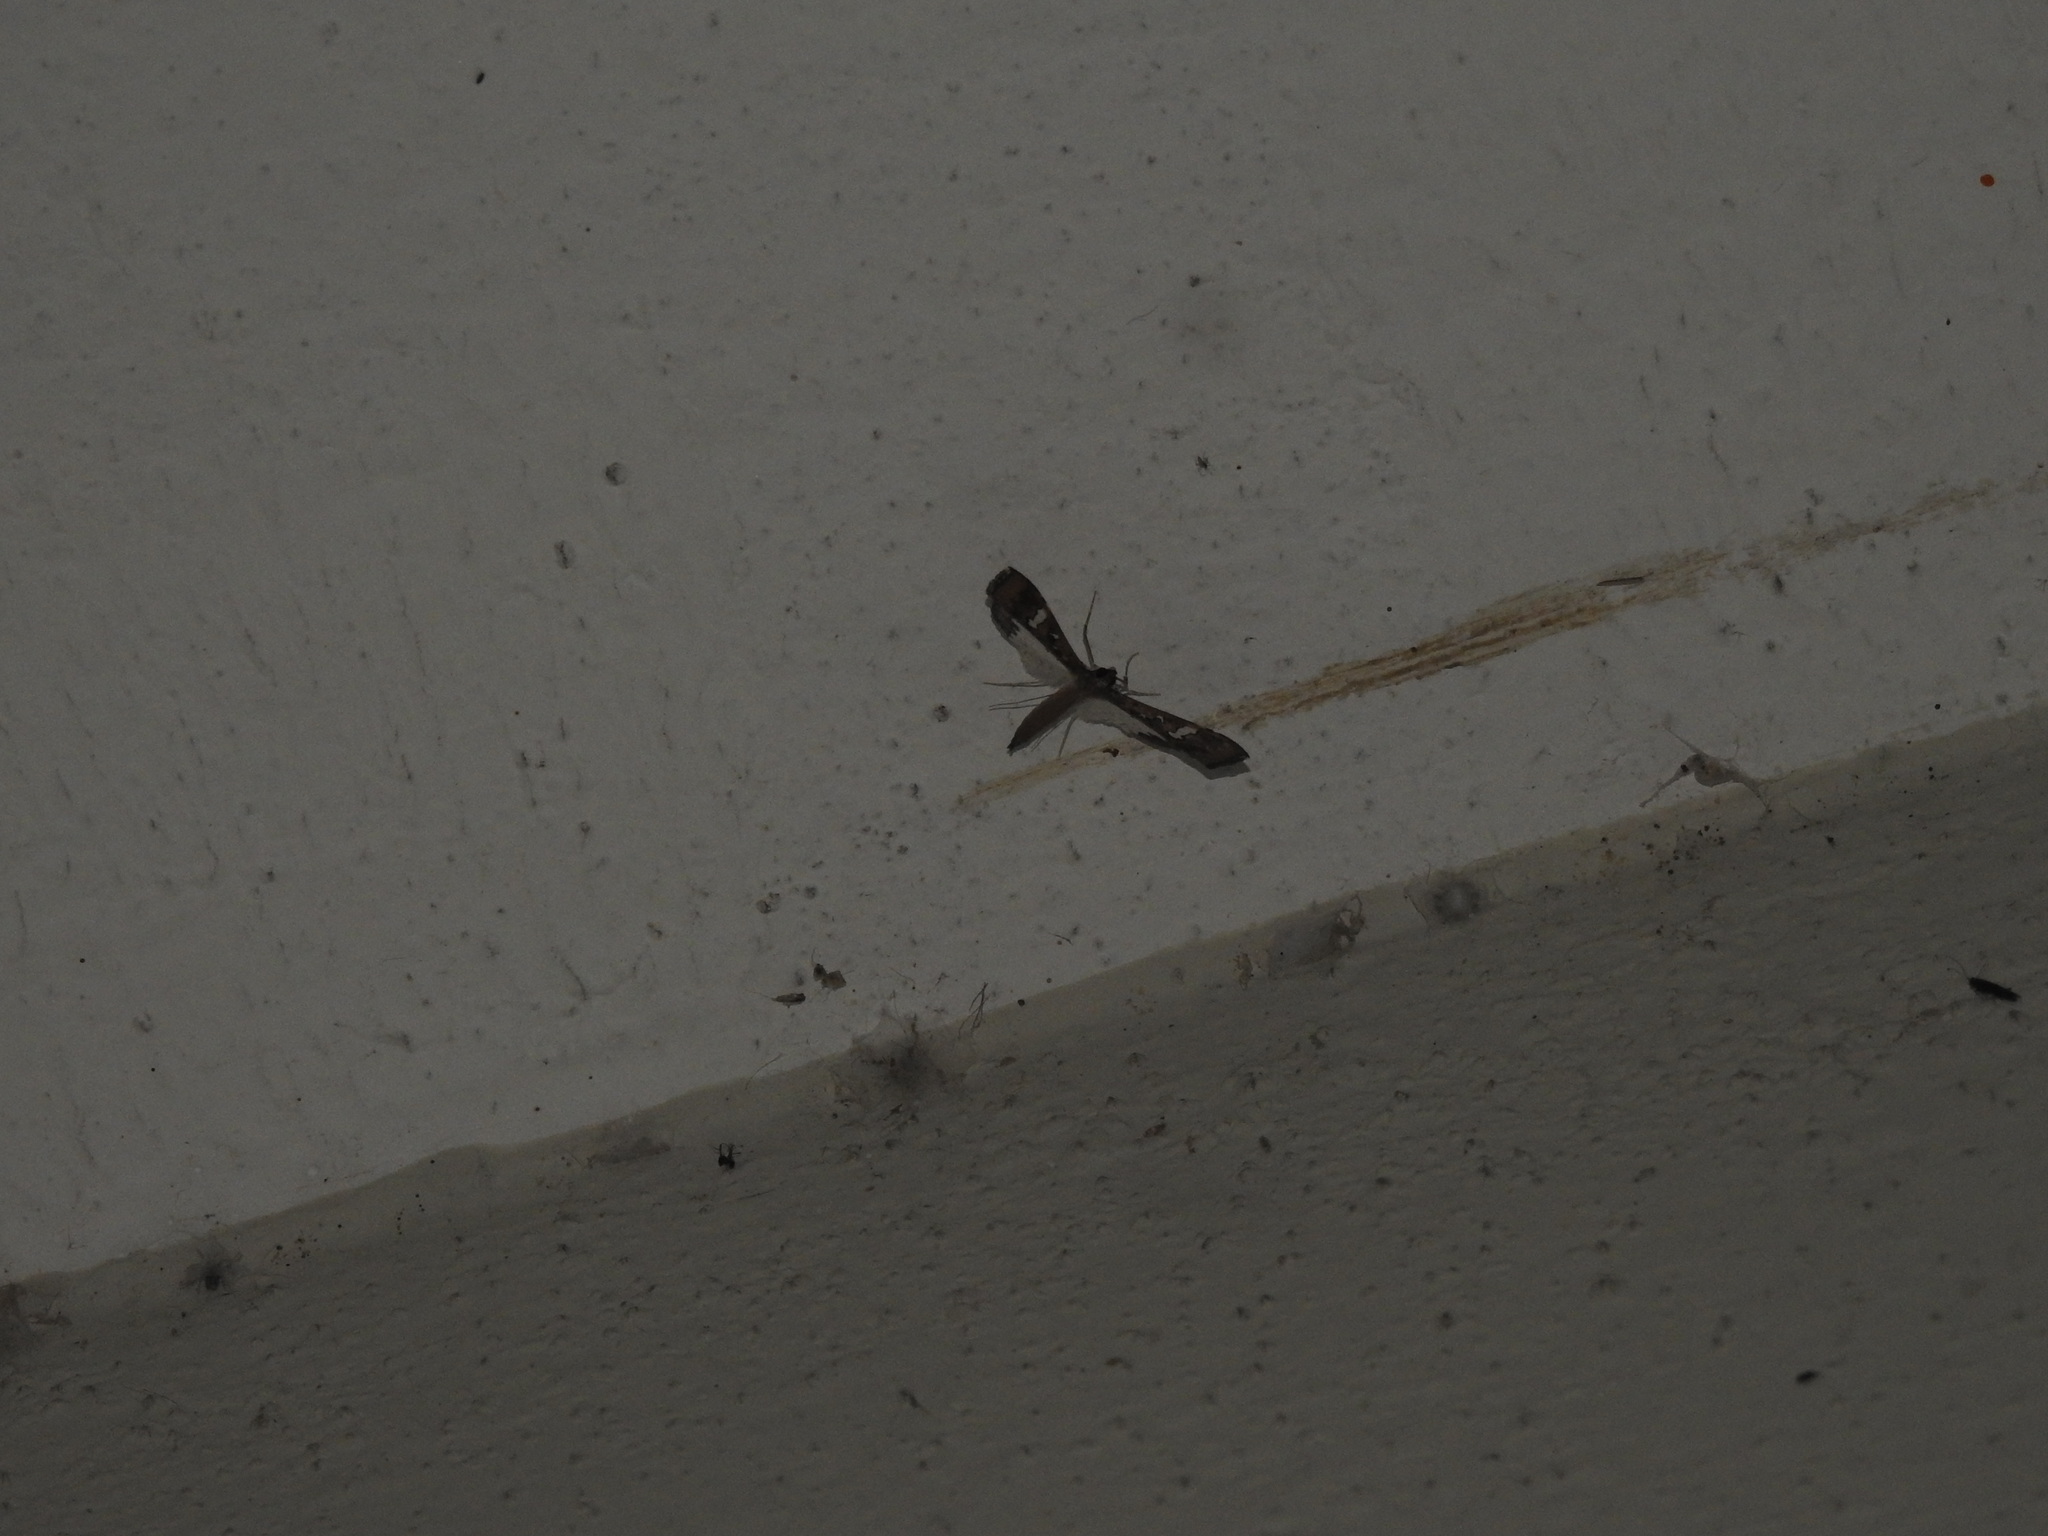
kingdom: Animalia
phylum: Arthropoda
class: Insecta
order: Lepidoptera
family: Crambidae
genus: Maruca
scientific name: Maruca vitrata
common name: Maruca pod borer
